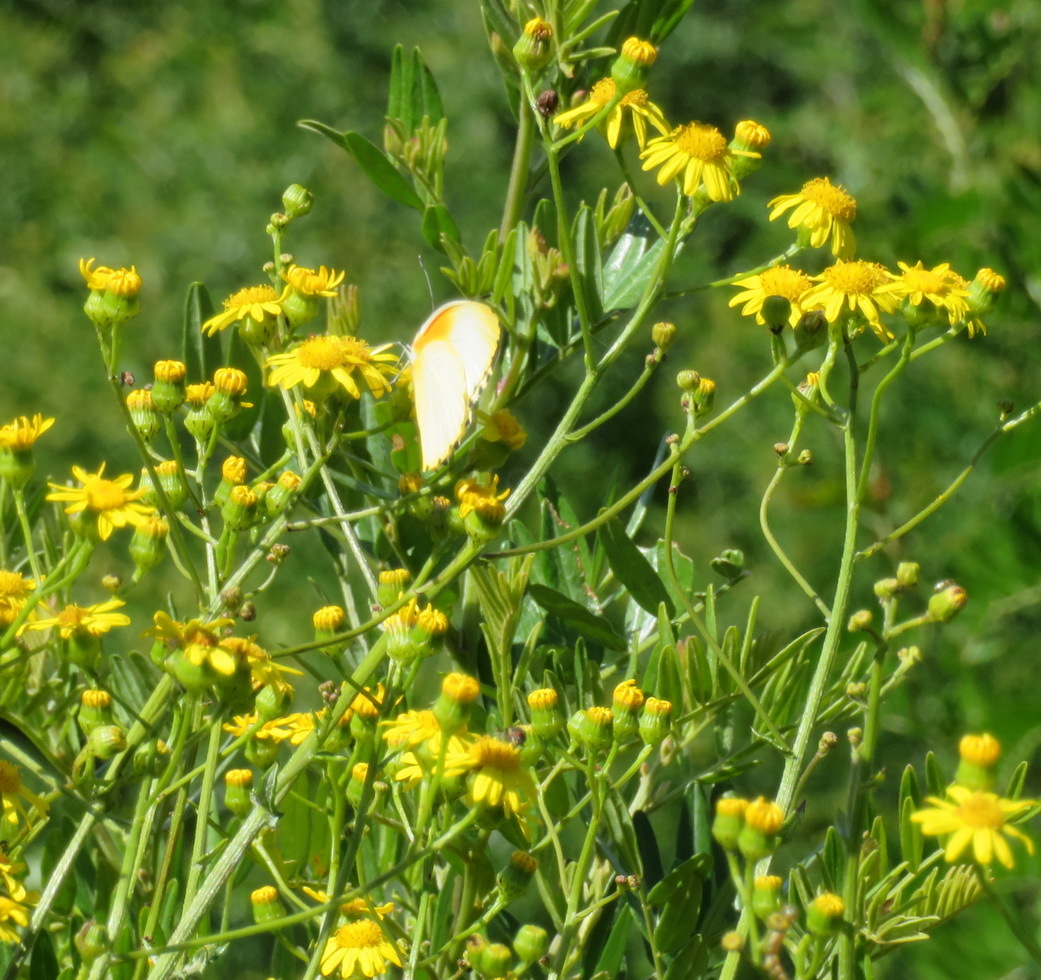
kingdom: Animalia
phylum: Arthropoda
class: Insecta
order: Lepidoptera
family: Pieridae
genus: Mylothris
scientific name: Mylothris agathina
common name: Eastern dotted border
